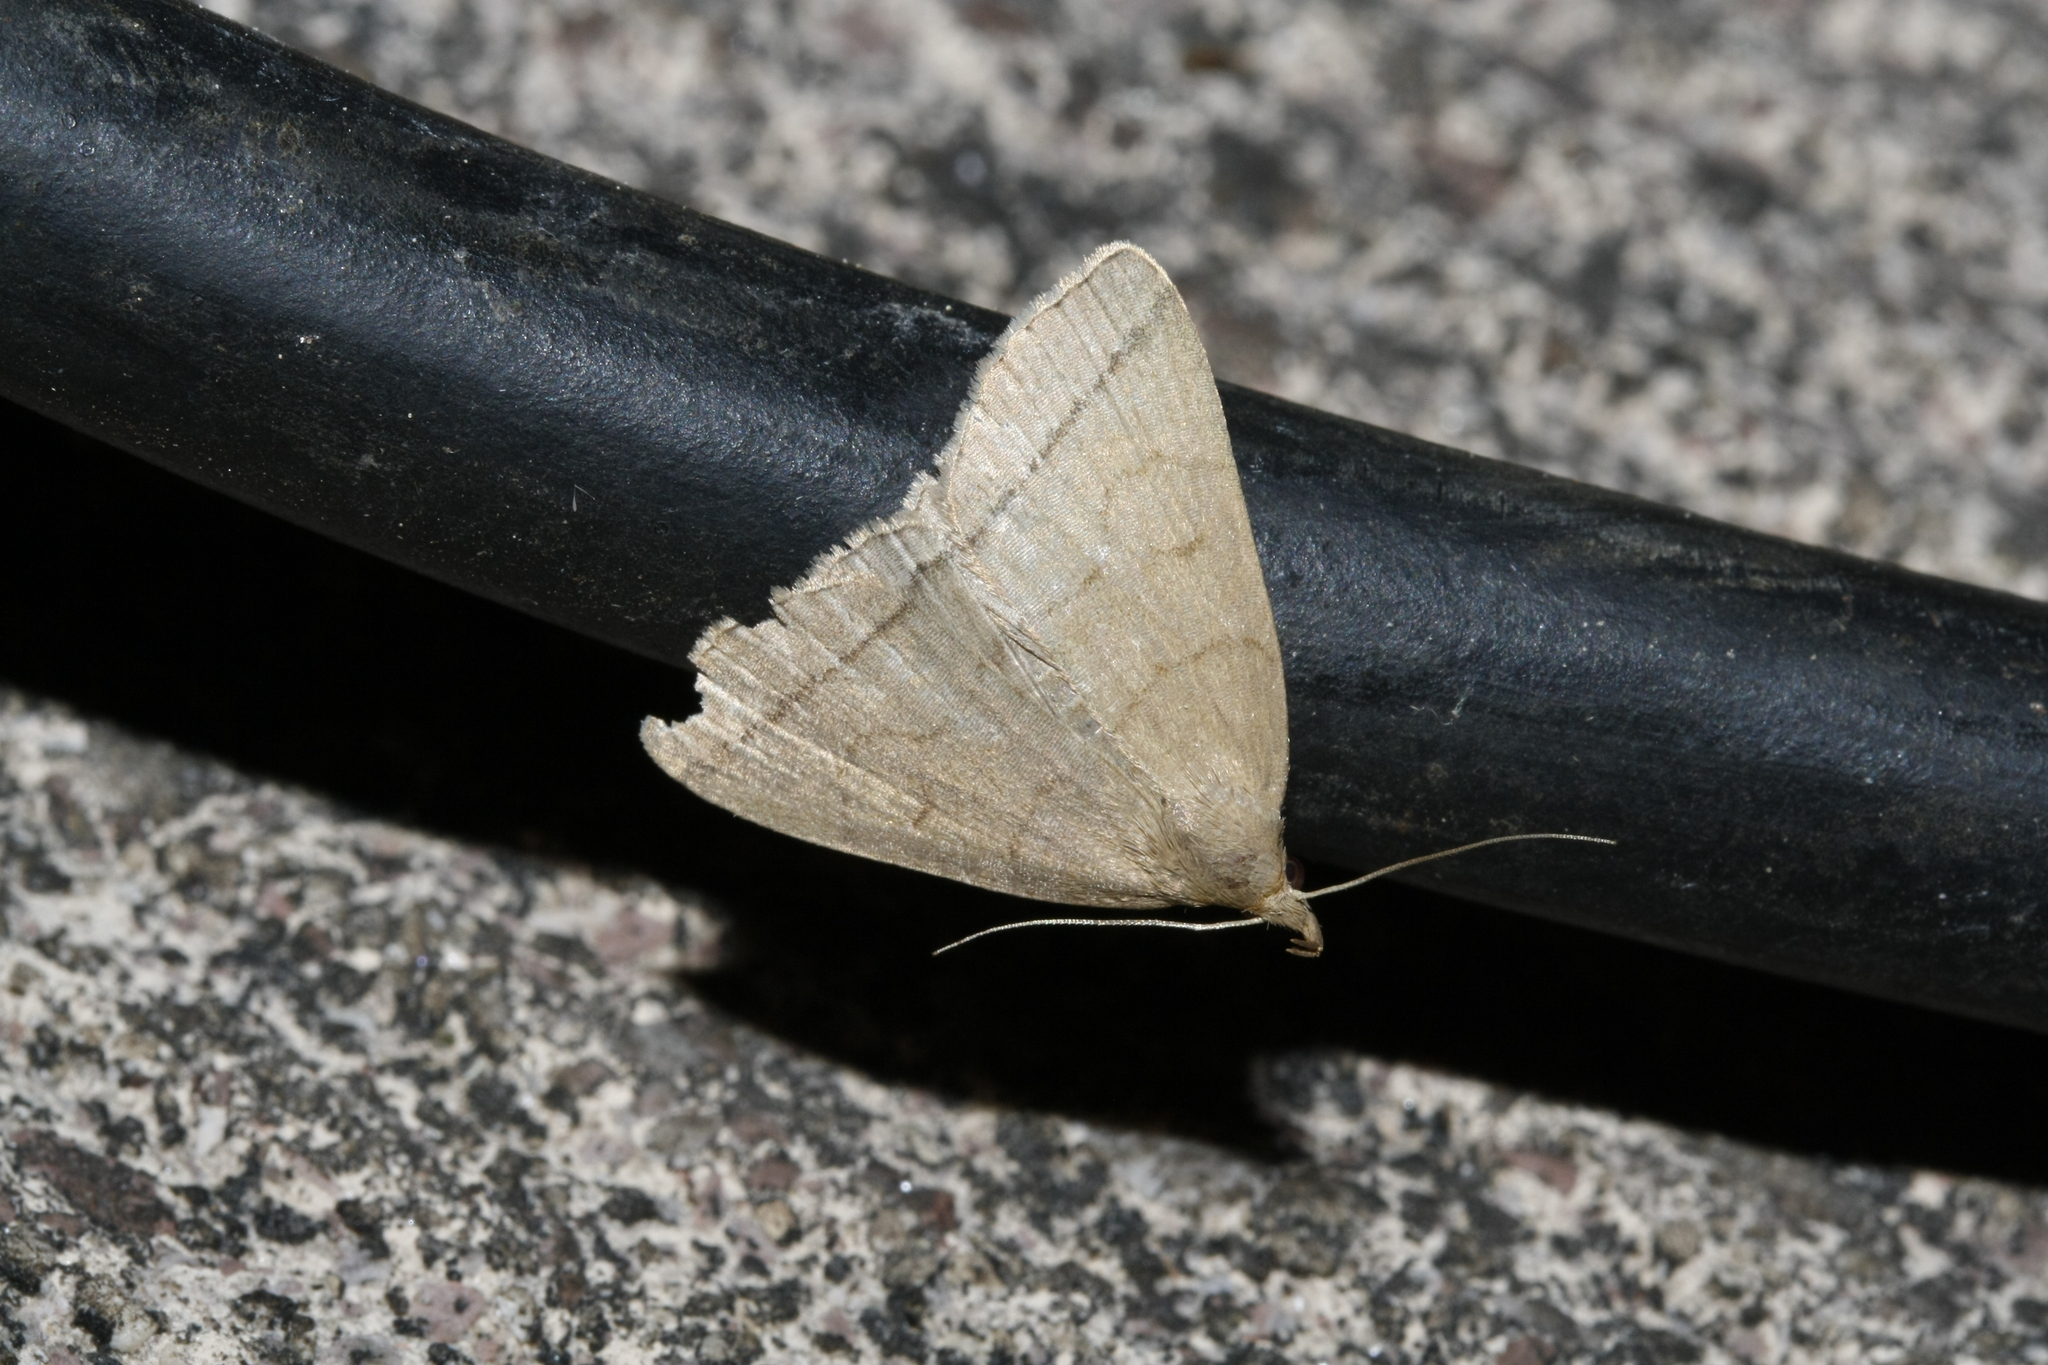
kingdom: Animalia
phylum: Arthropoda
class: Insecta
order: Lepidoptera
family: Erebidae
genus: Herminia
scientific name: Herminia tarsipennalis
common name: Fan-foot
